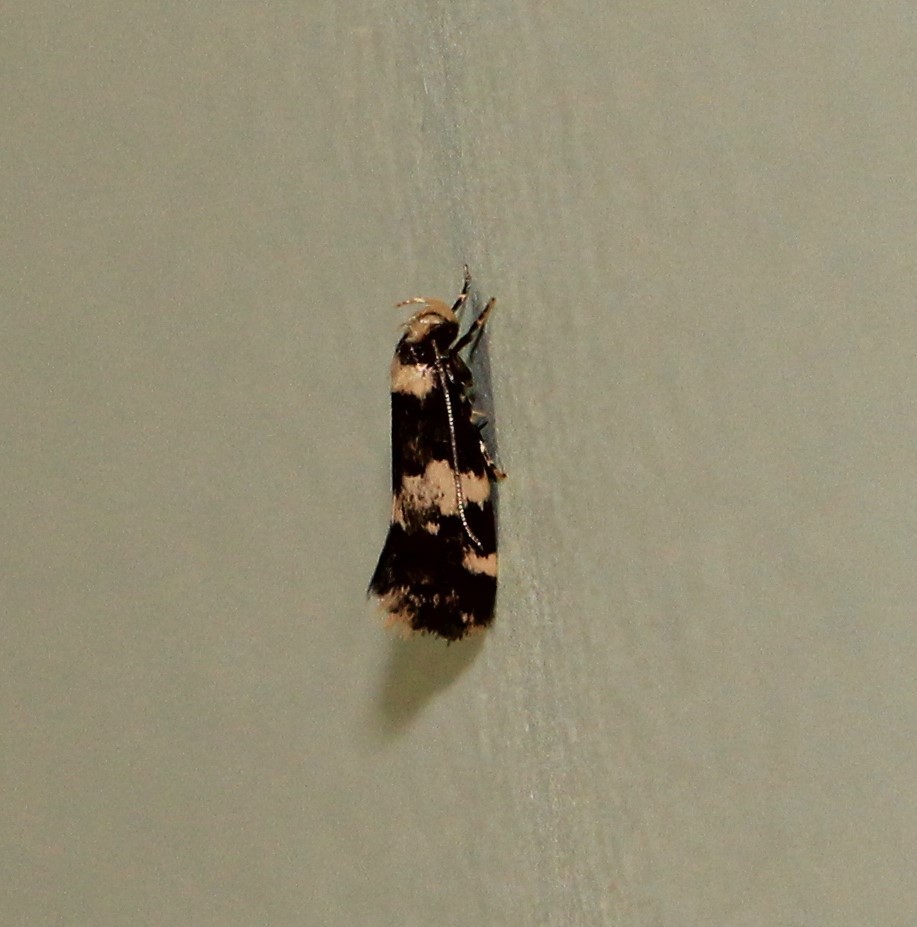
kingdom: Animalia
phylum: Arthropoda
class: Insecta
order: Lepidoptera
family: Oecophoridae
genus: Sphyrelata
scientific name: Sphyrelata amotella
